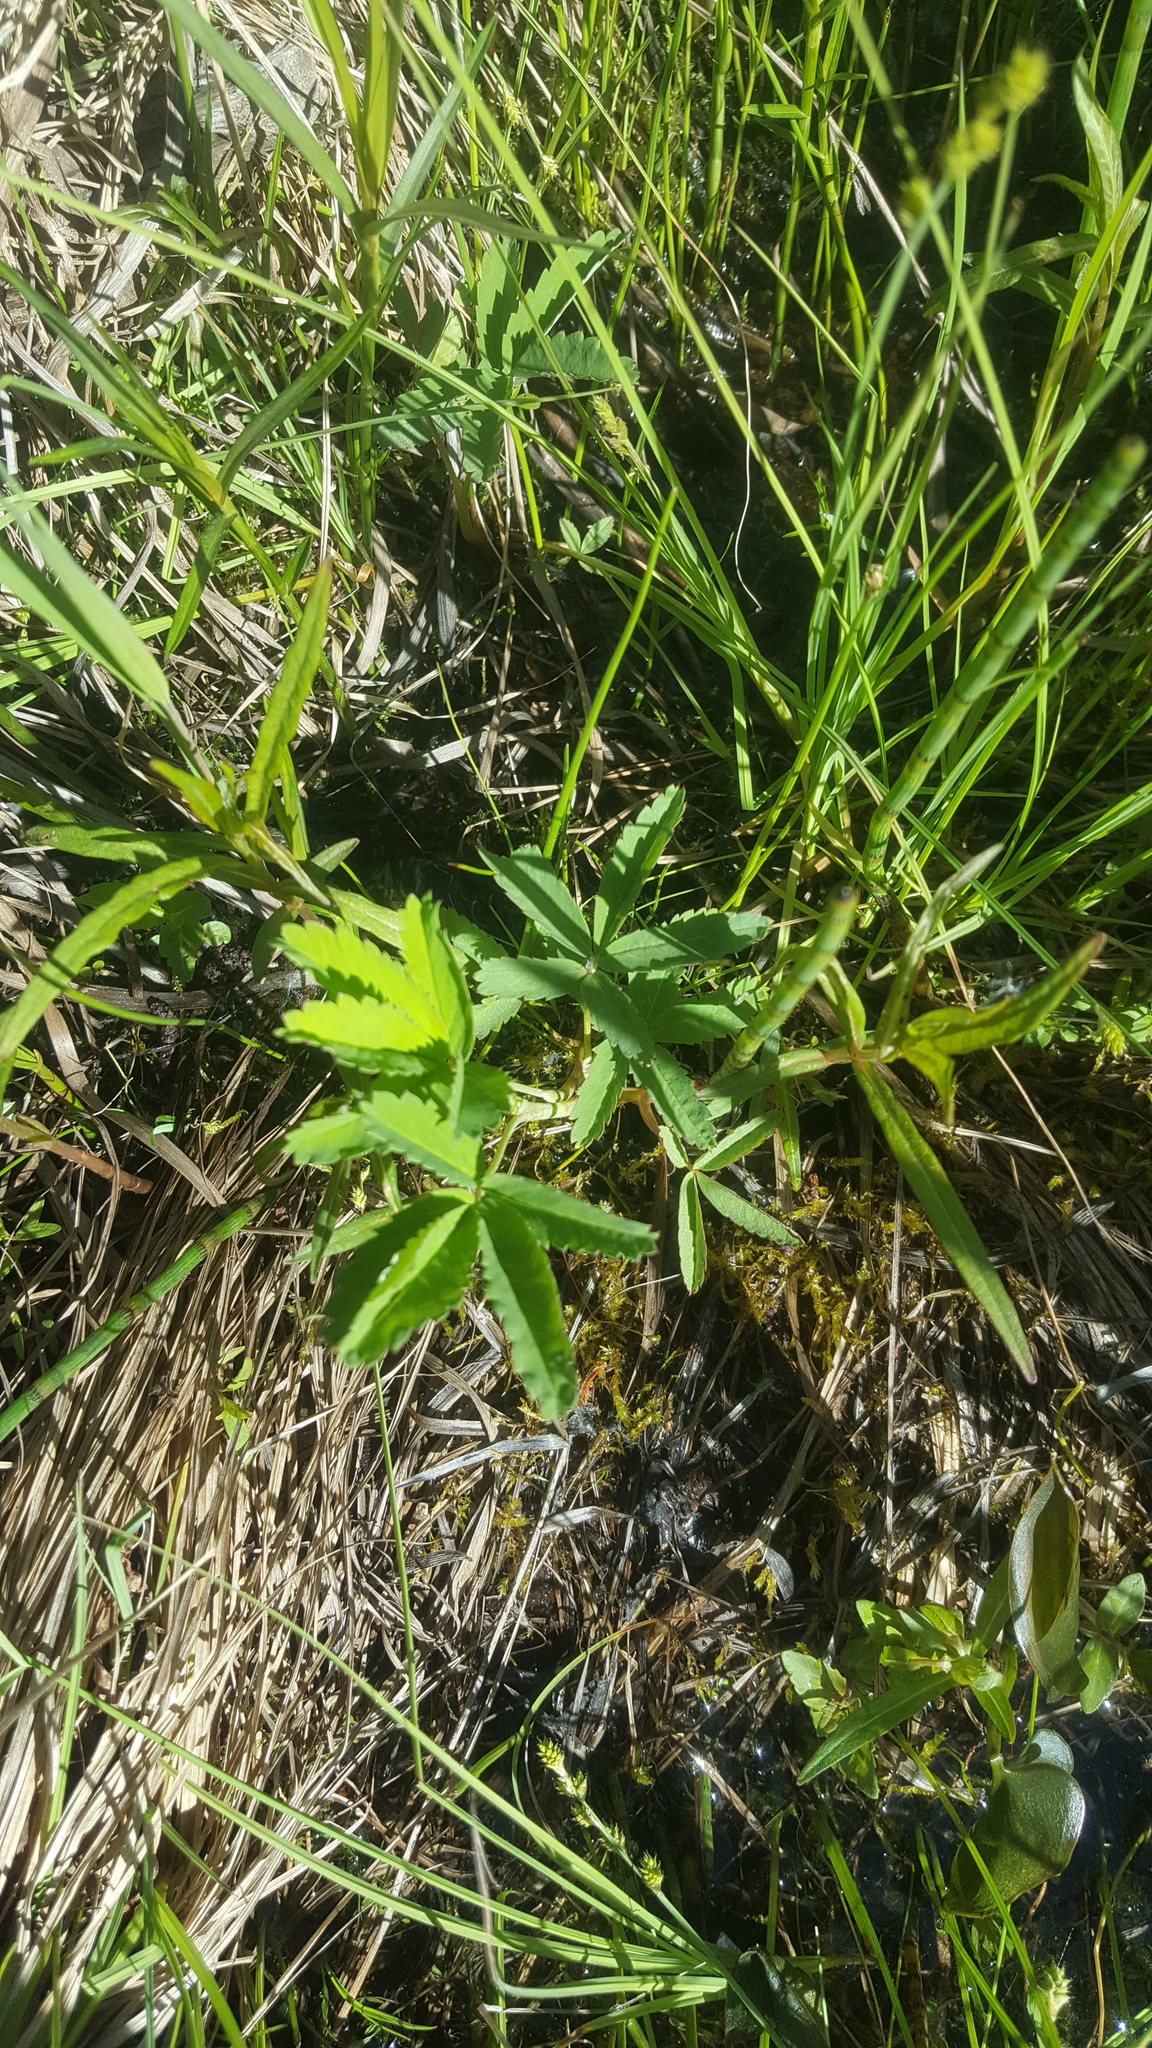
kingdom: Plantae
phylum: Tracheophyta
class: Magnoliopsida
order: Rosales
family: Rosaceae
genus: Comarum
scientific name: Comarum palustre
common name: Marsh cinquefoil
